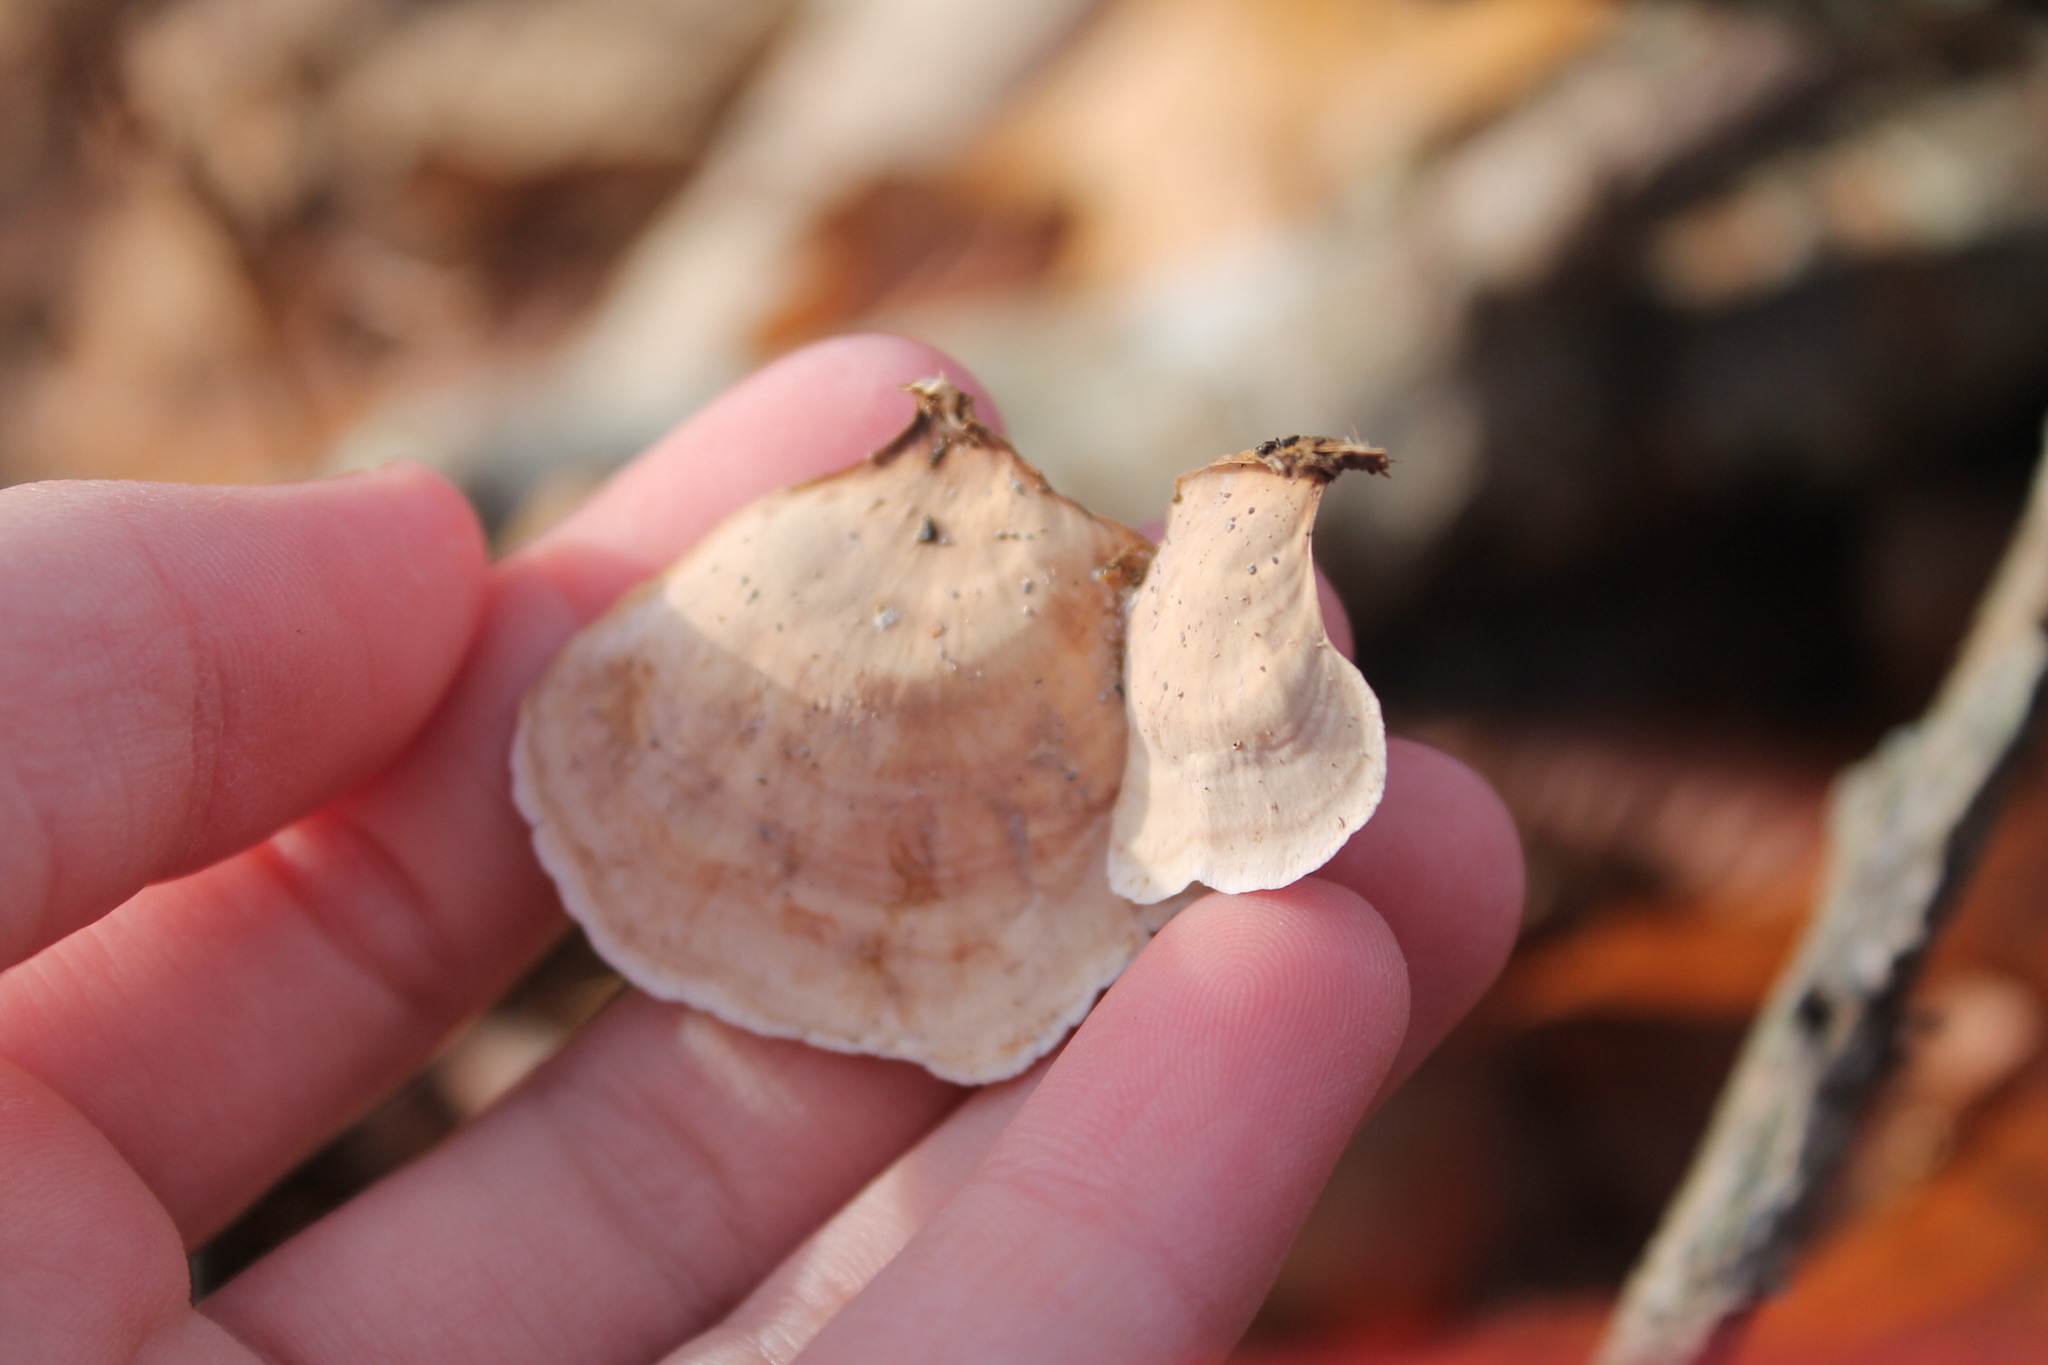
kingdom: Fungi
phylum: Basidiomycota
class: Agaricomycetes
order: Russulales
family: Stereaceae
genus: Stereum
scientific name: Stereum lobatum
